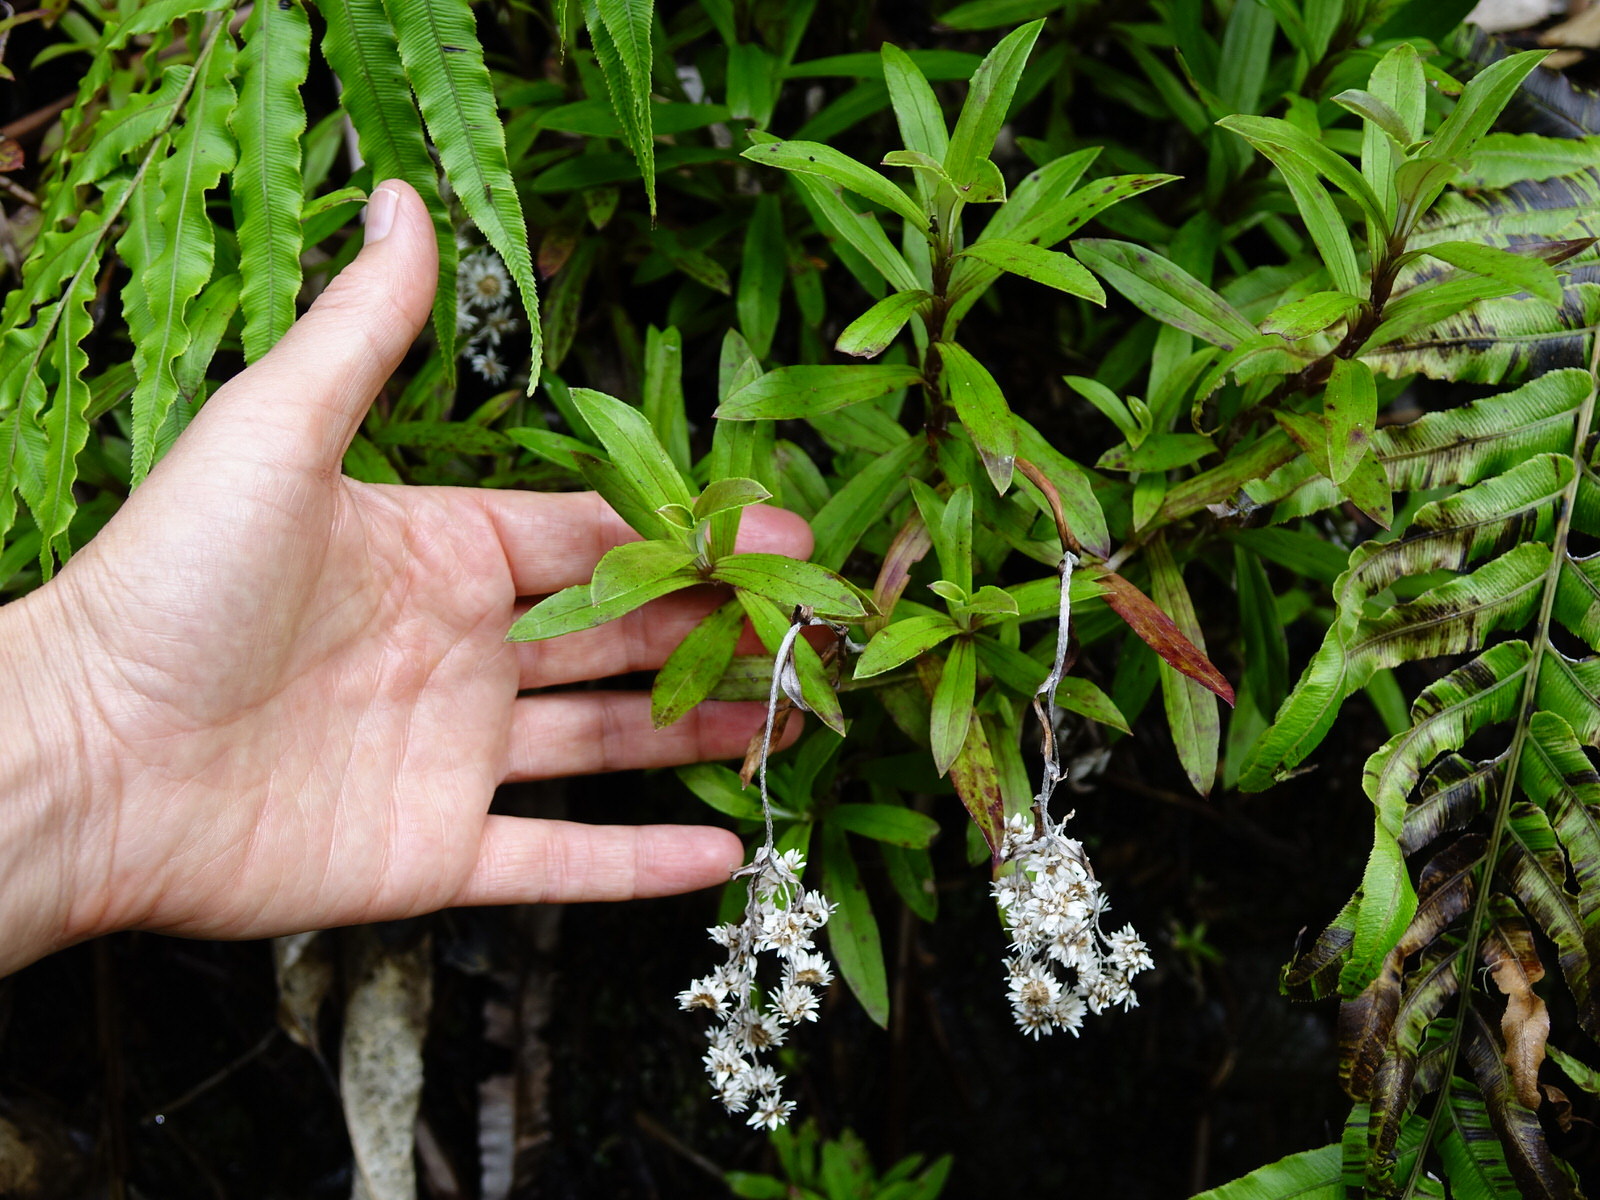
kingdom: Plantae
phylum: Tracheophyta
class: Magnoliopsida
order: Asterales
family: Asteraceae
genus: Anaphalioides
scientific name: Anaphalioides trinervis
